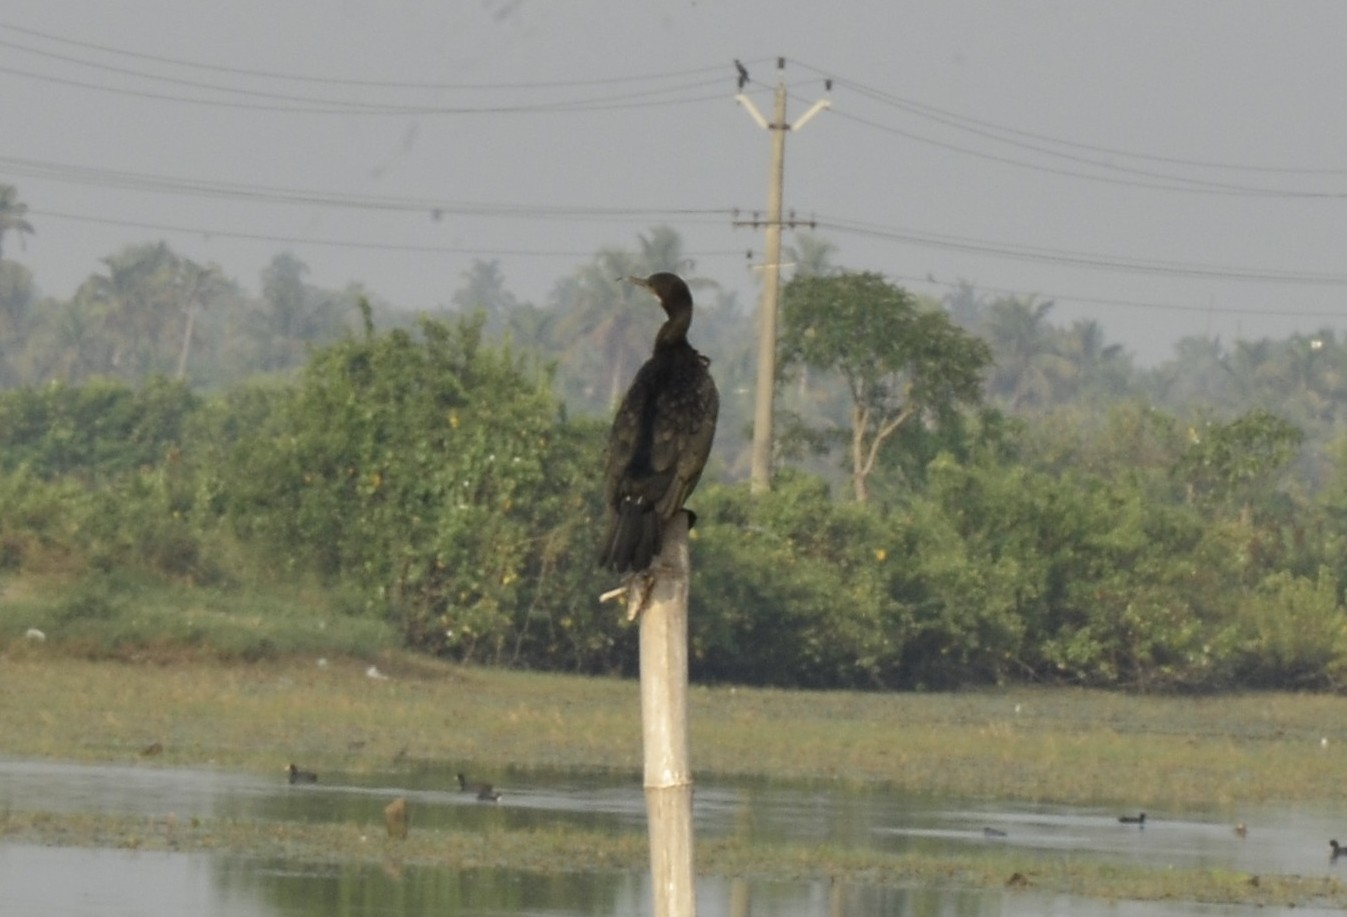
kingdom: Animalia
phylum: Chordata
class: Aves
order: Suliformes
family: Phalacrocoracidae
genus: Microcarbo
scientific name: Microcarbo niger
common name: Little cormorant
